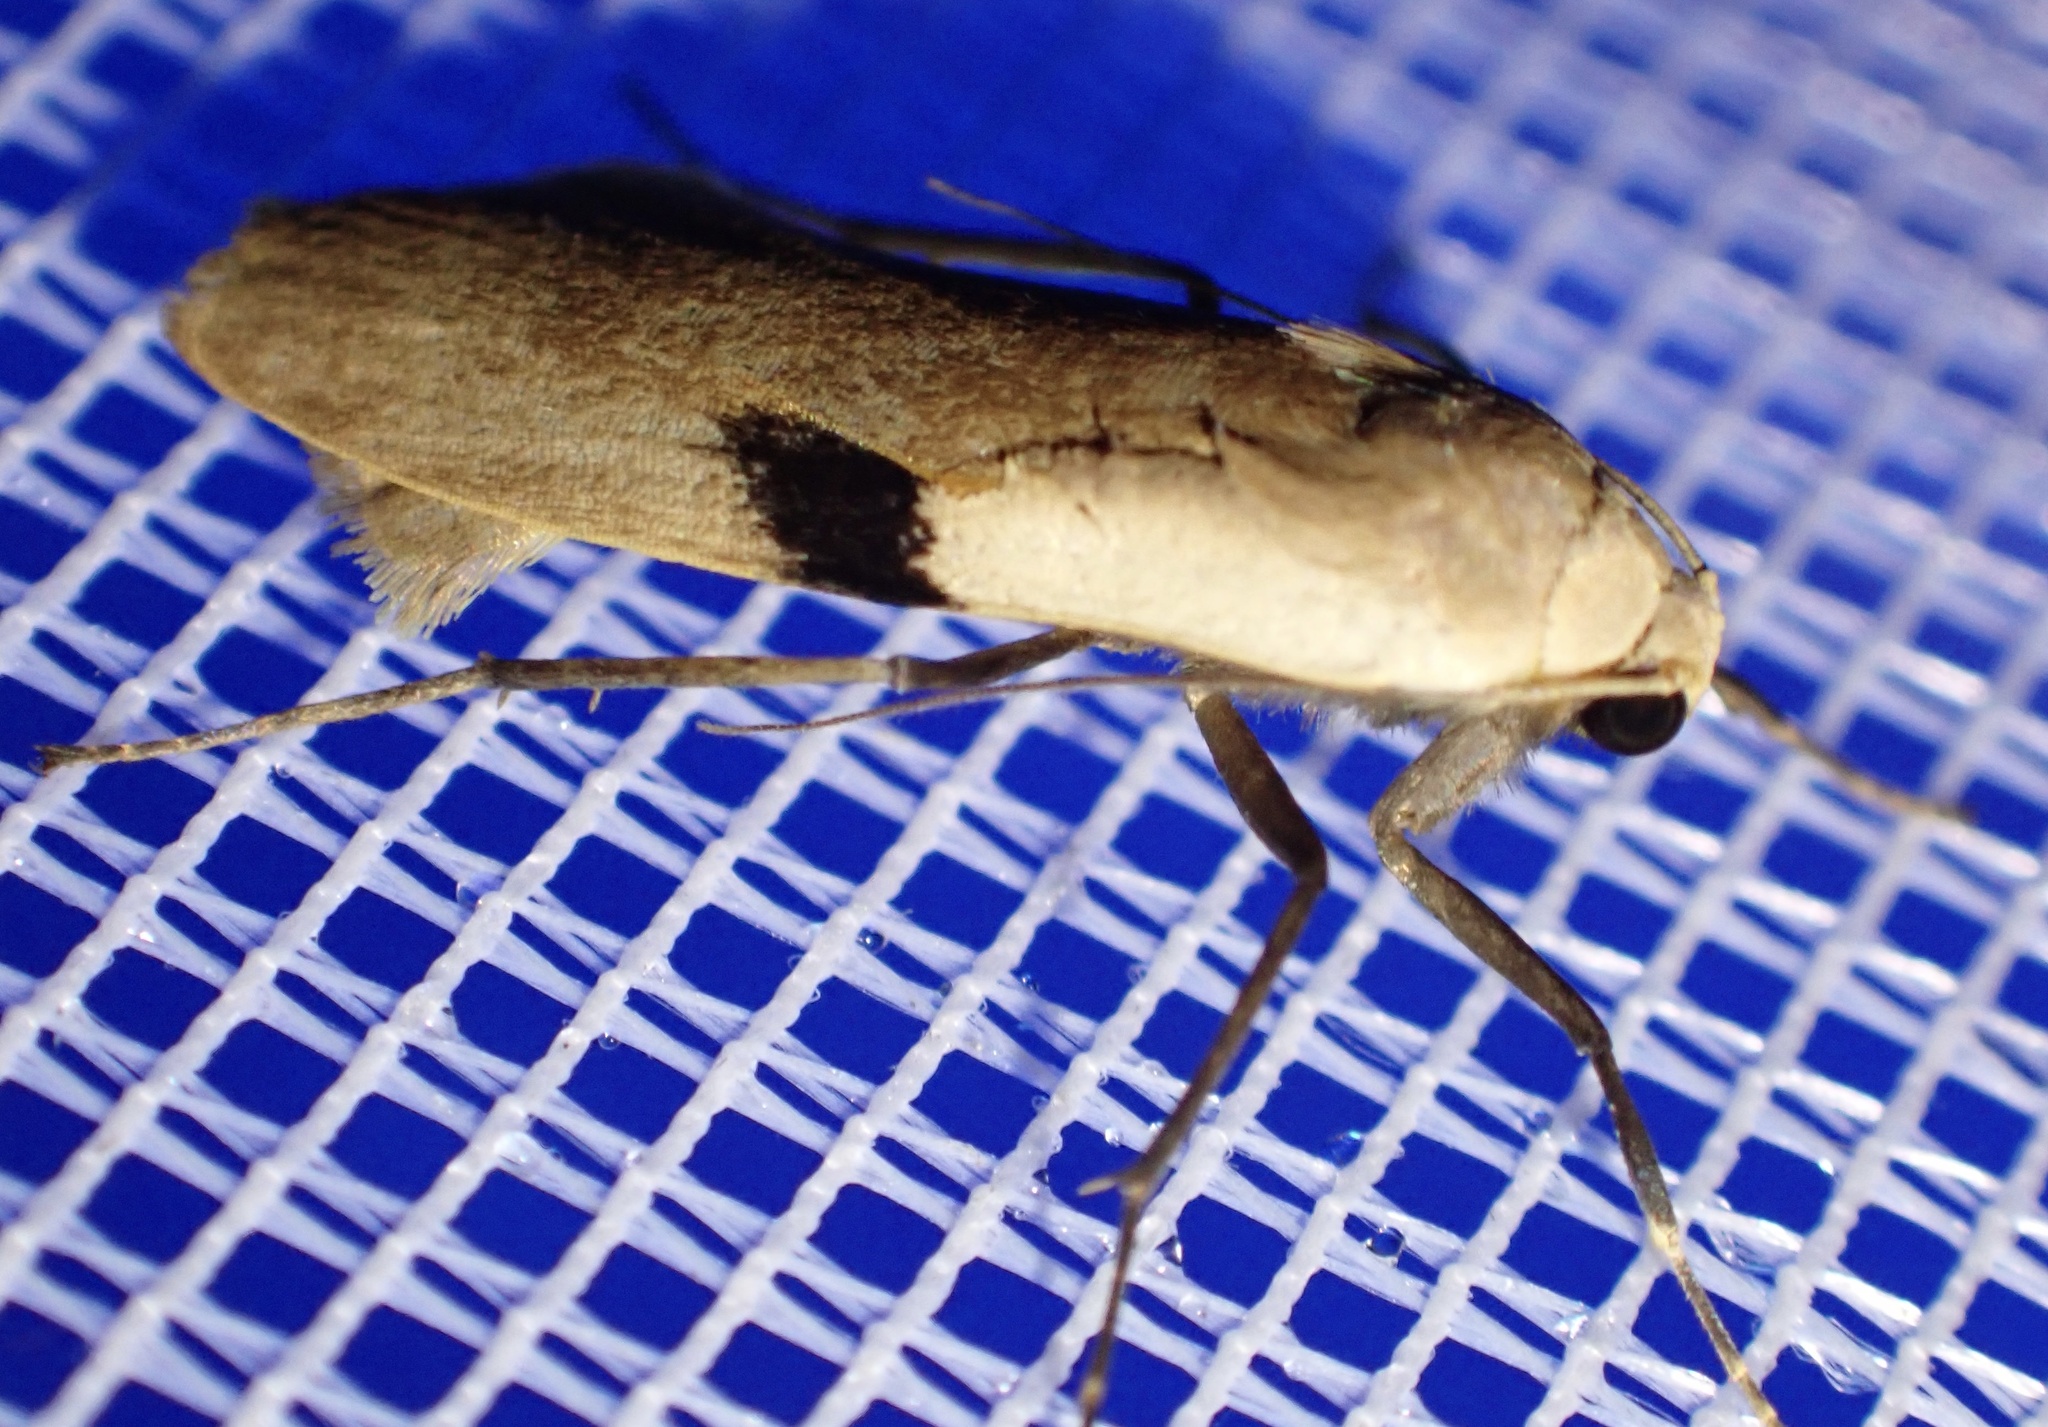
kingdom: Animalia
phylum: Arthropoda
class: Insecta
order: Lepidoptera
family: Erebidae
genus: Teulisna
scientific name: Teulisna bipunctata
